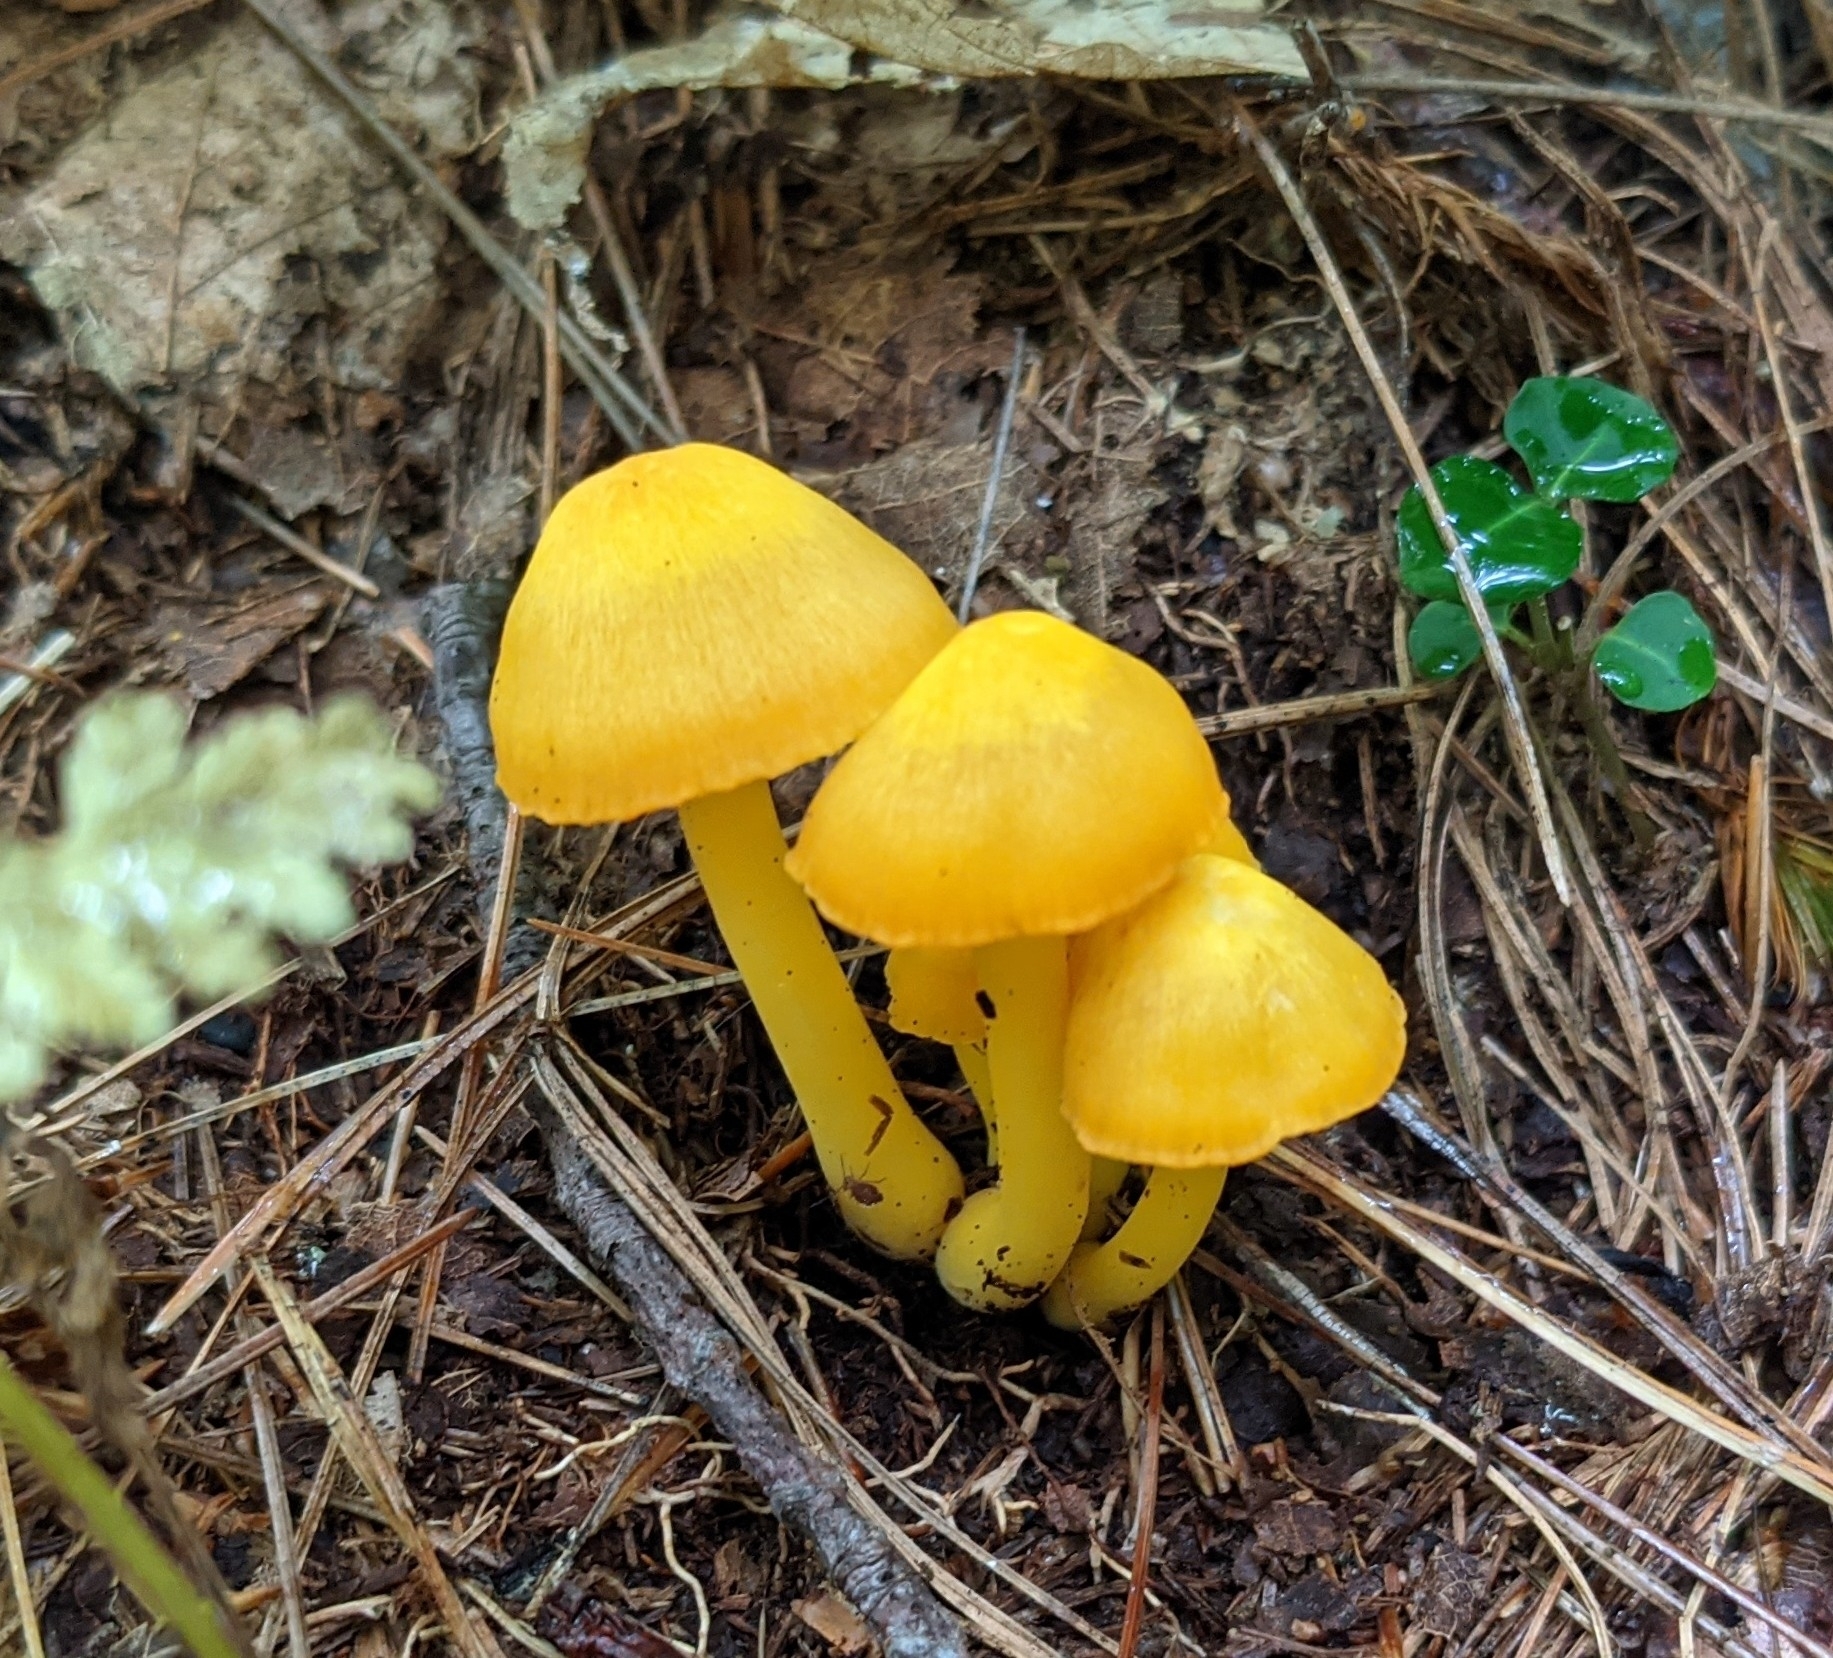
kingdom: Fungi
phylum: Basidiomycota
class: Agaricomycetes
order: Agaricales
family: Hygrophoraceae
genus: Humidicutis
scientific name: Humidicutis marginata
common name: Orange gilled waxcap
